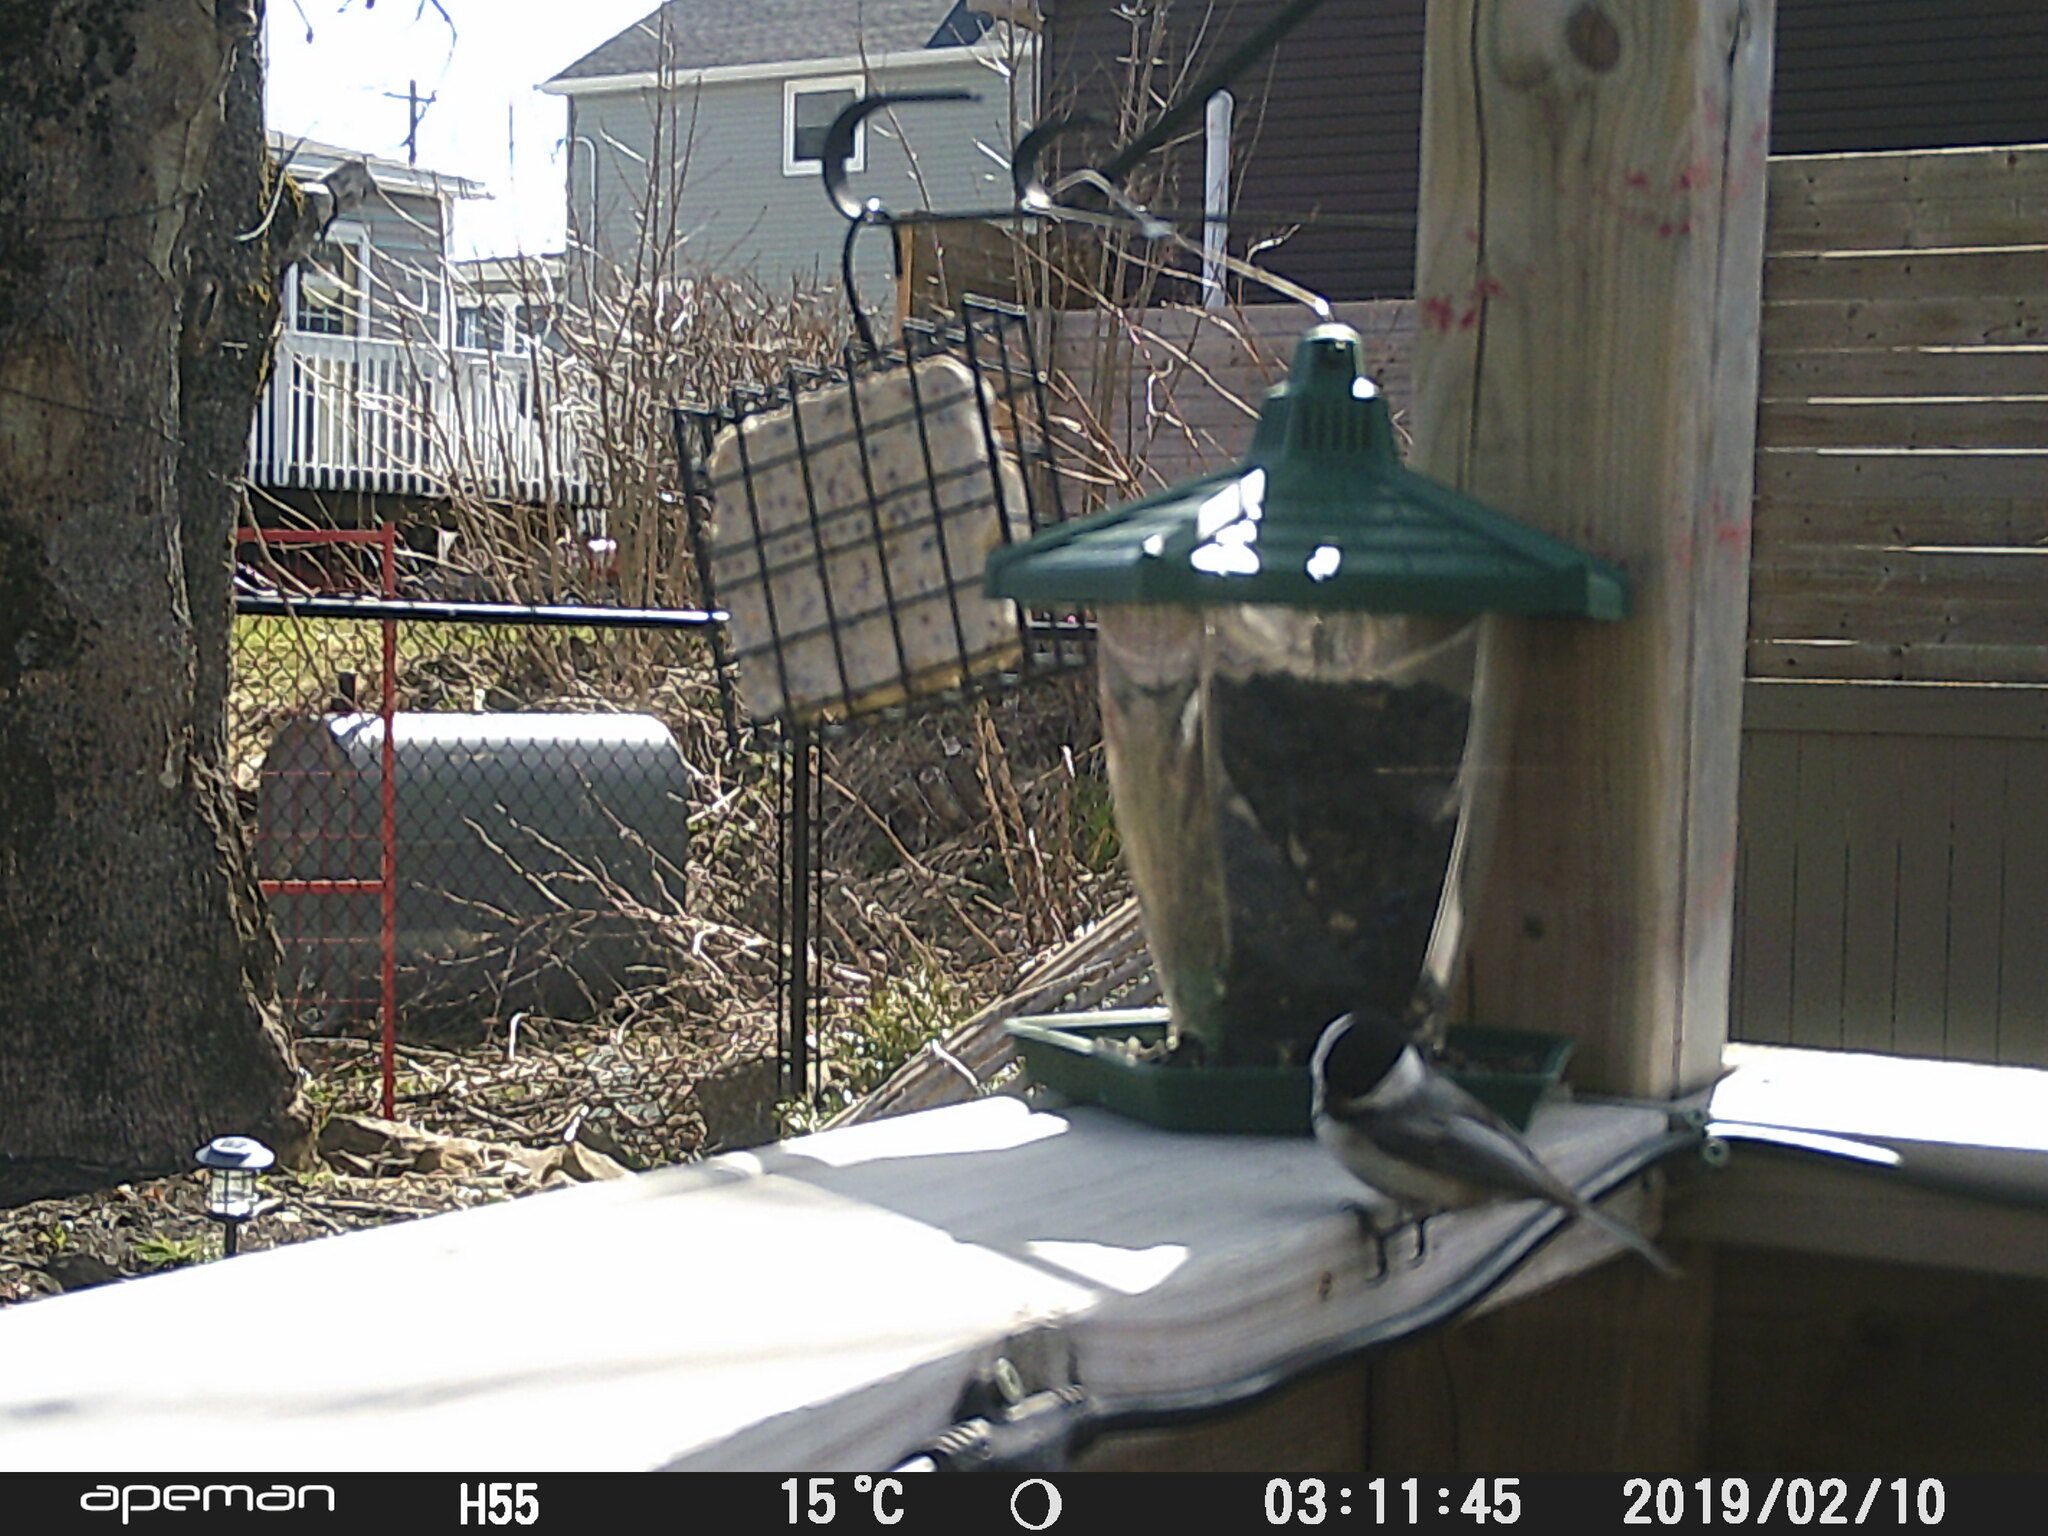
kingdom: Animalia
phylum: Chordata
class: Aves
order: Passeriformes
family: Paridae
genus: Poecile
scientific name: Poecile atricapillus
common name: Black-capped chickadee
